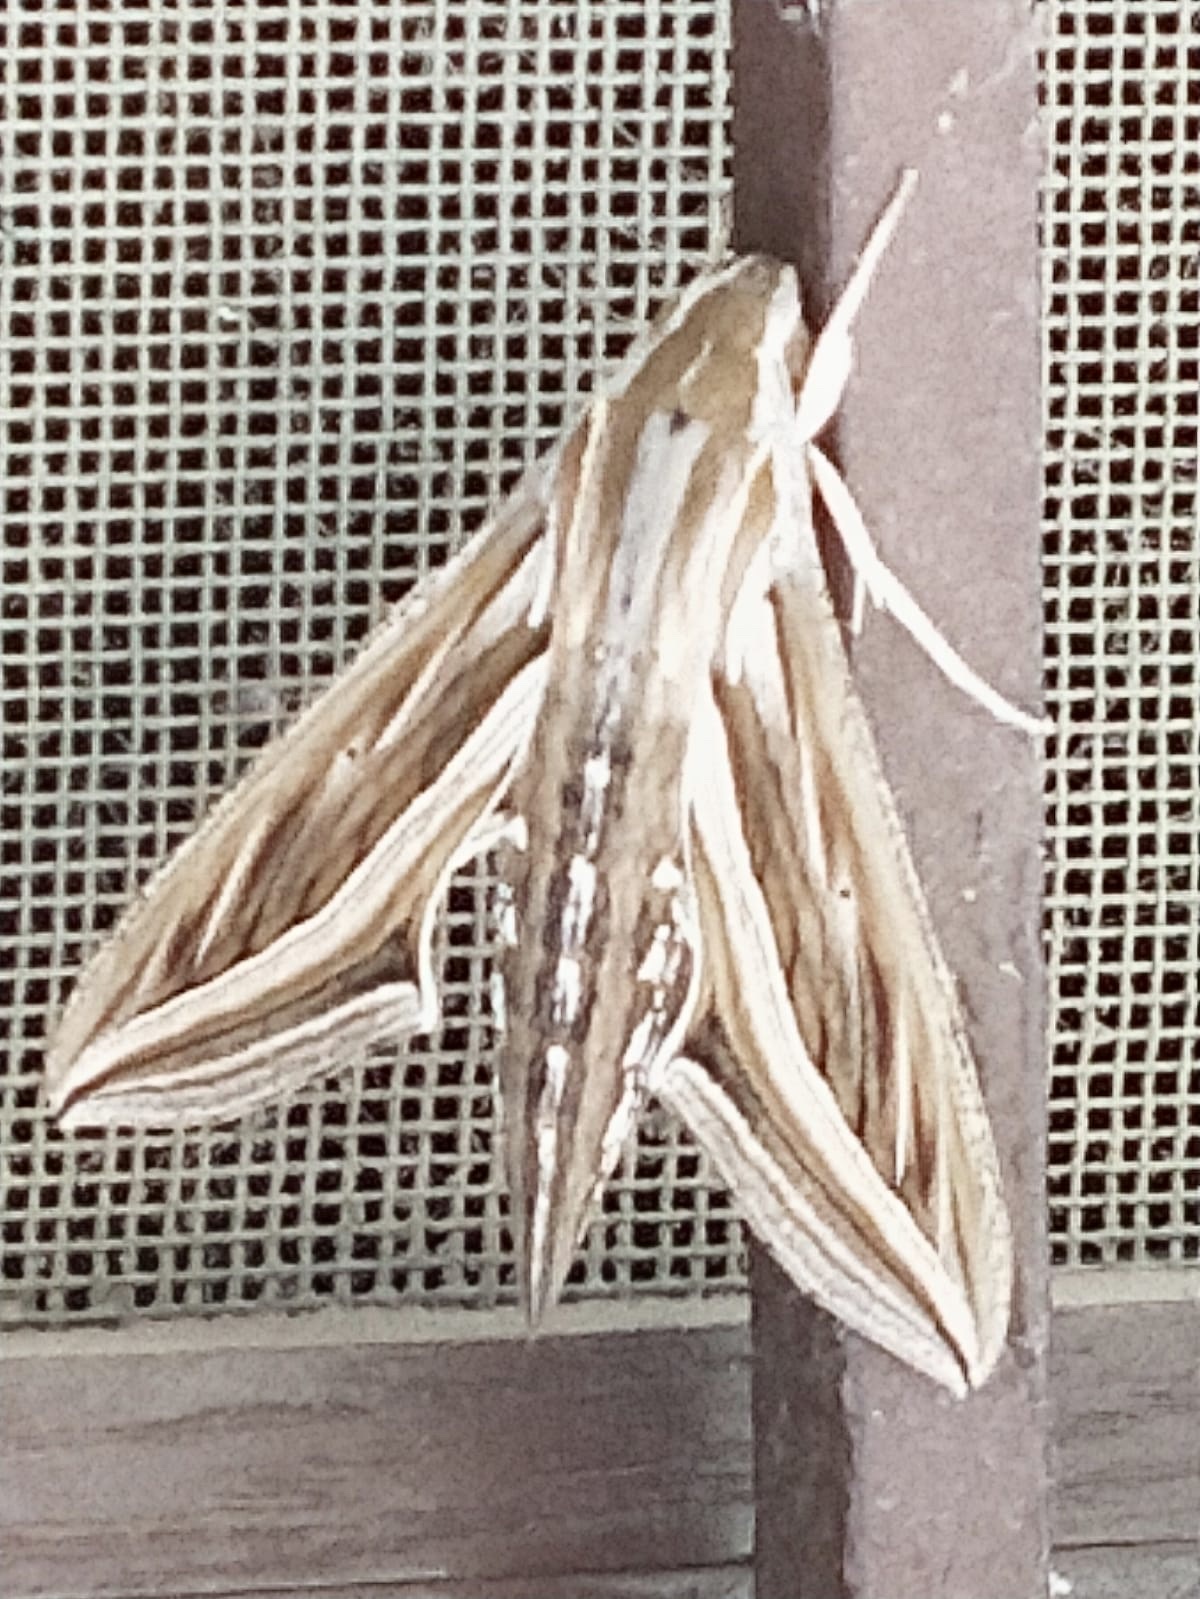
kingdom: Animalia
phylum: Arthropoda
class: Insecta
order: Lepidoptera
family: Sphingidae
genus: Hippotion
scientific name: Hippotion celerio
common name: Silver-striped hawk-moth
